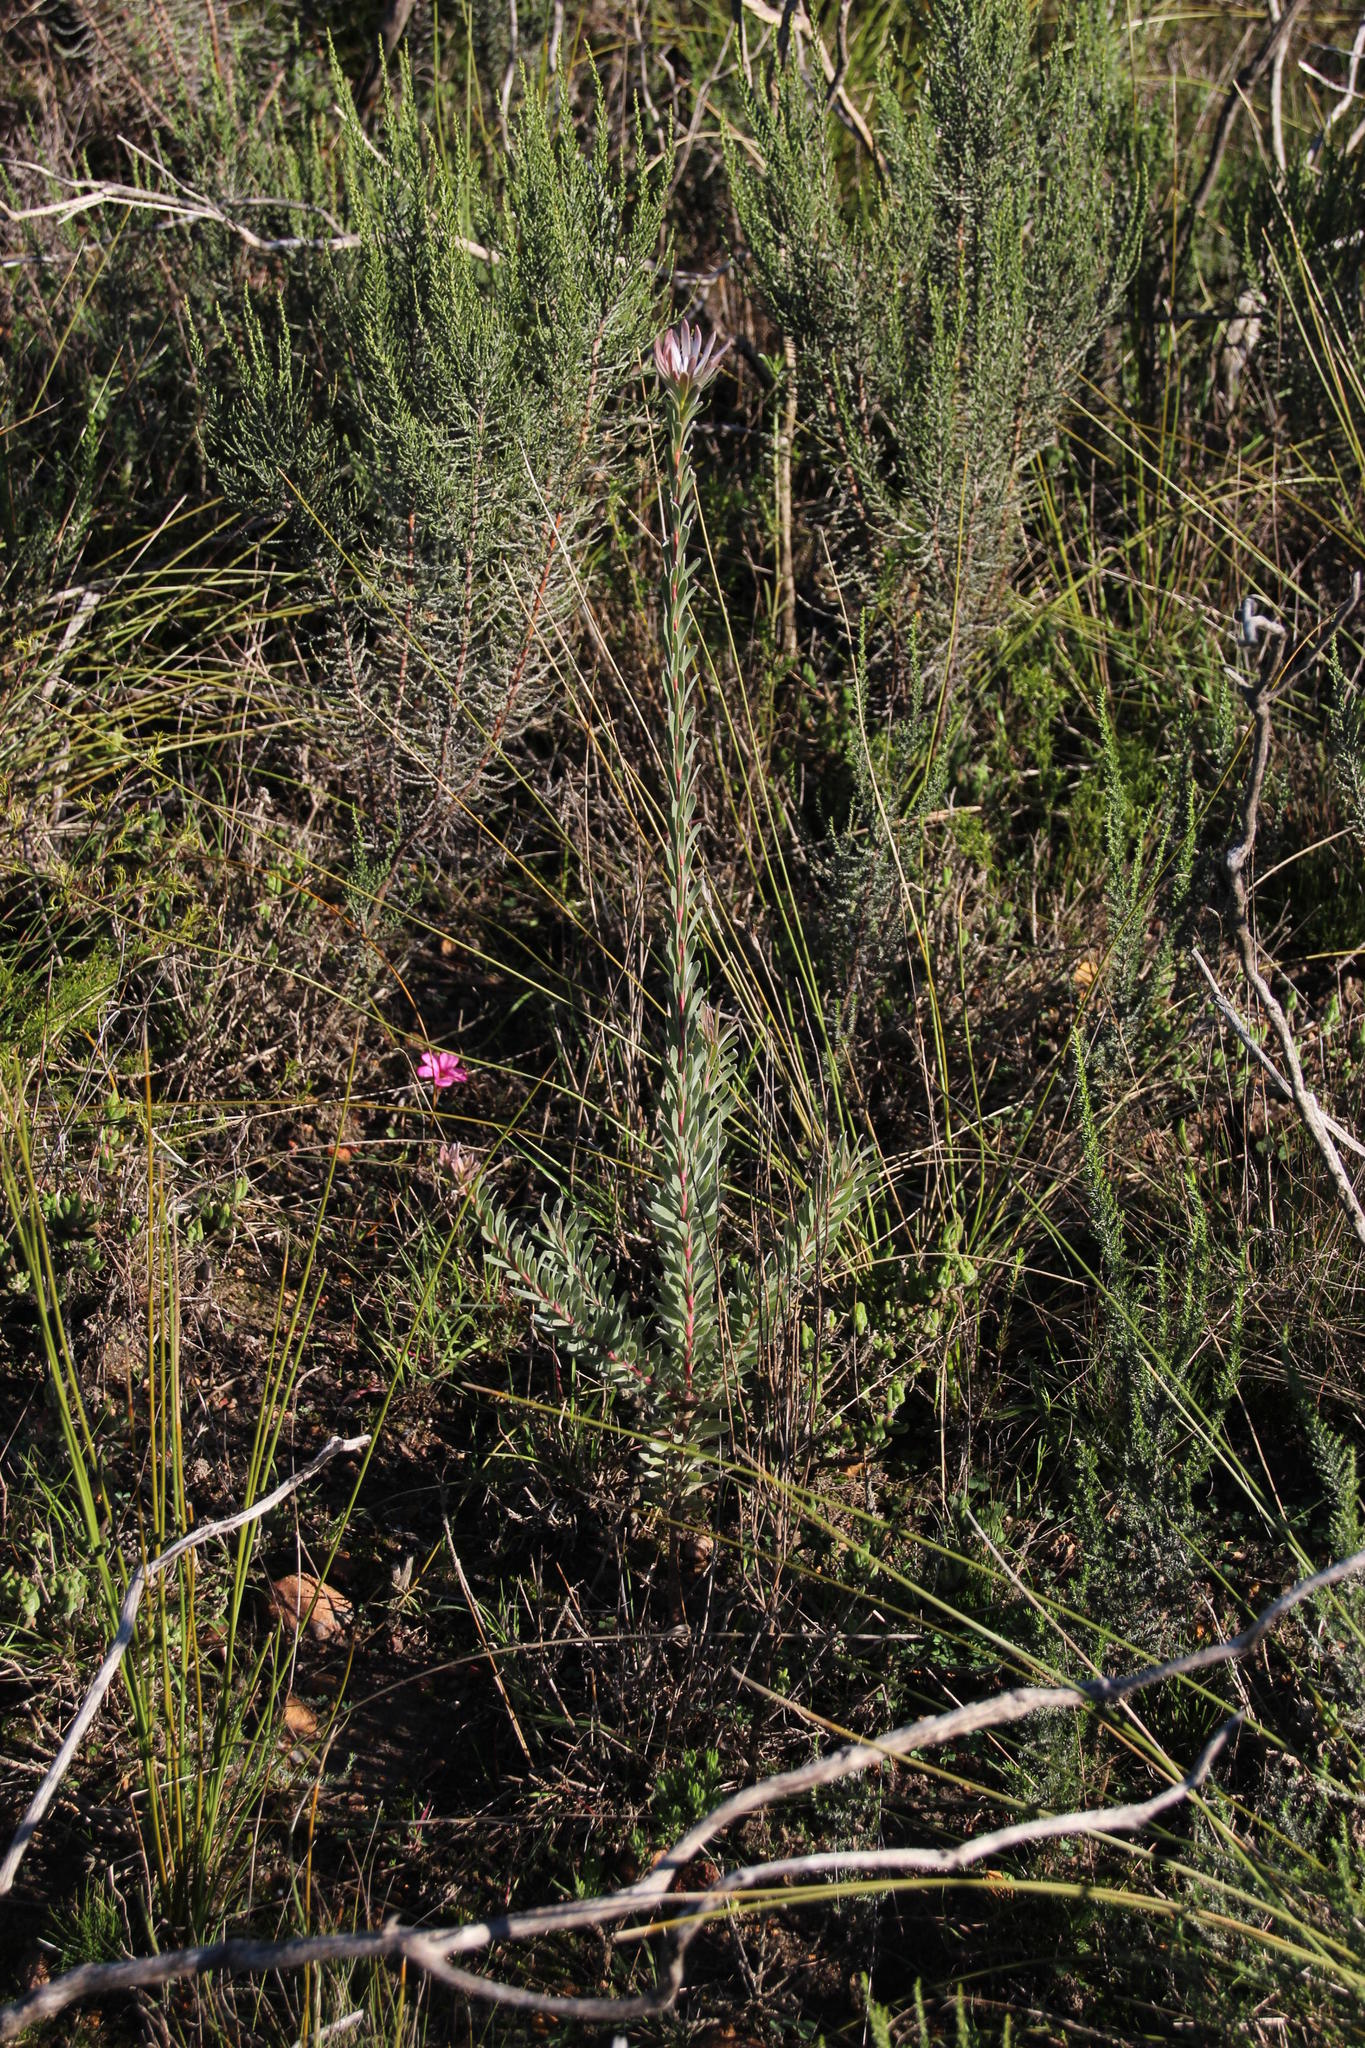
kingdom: Plantae
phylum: Tracheophyta
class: Magnoliopsida
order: Proteales
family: Proteaceae
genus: Leucadendron
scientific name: Leucadendron verticillatum
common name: Klapmuts conebush
